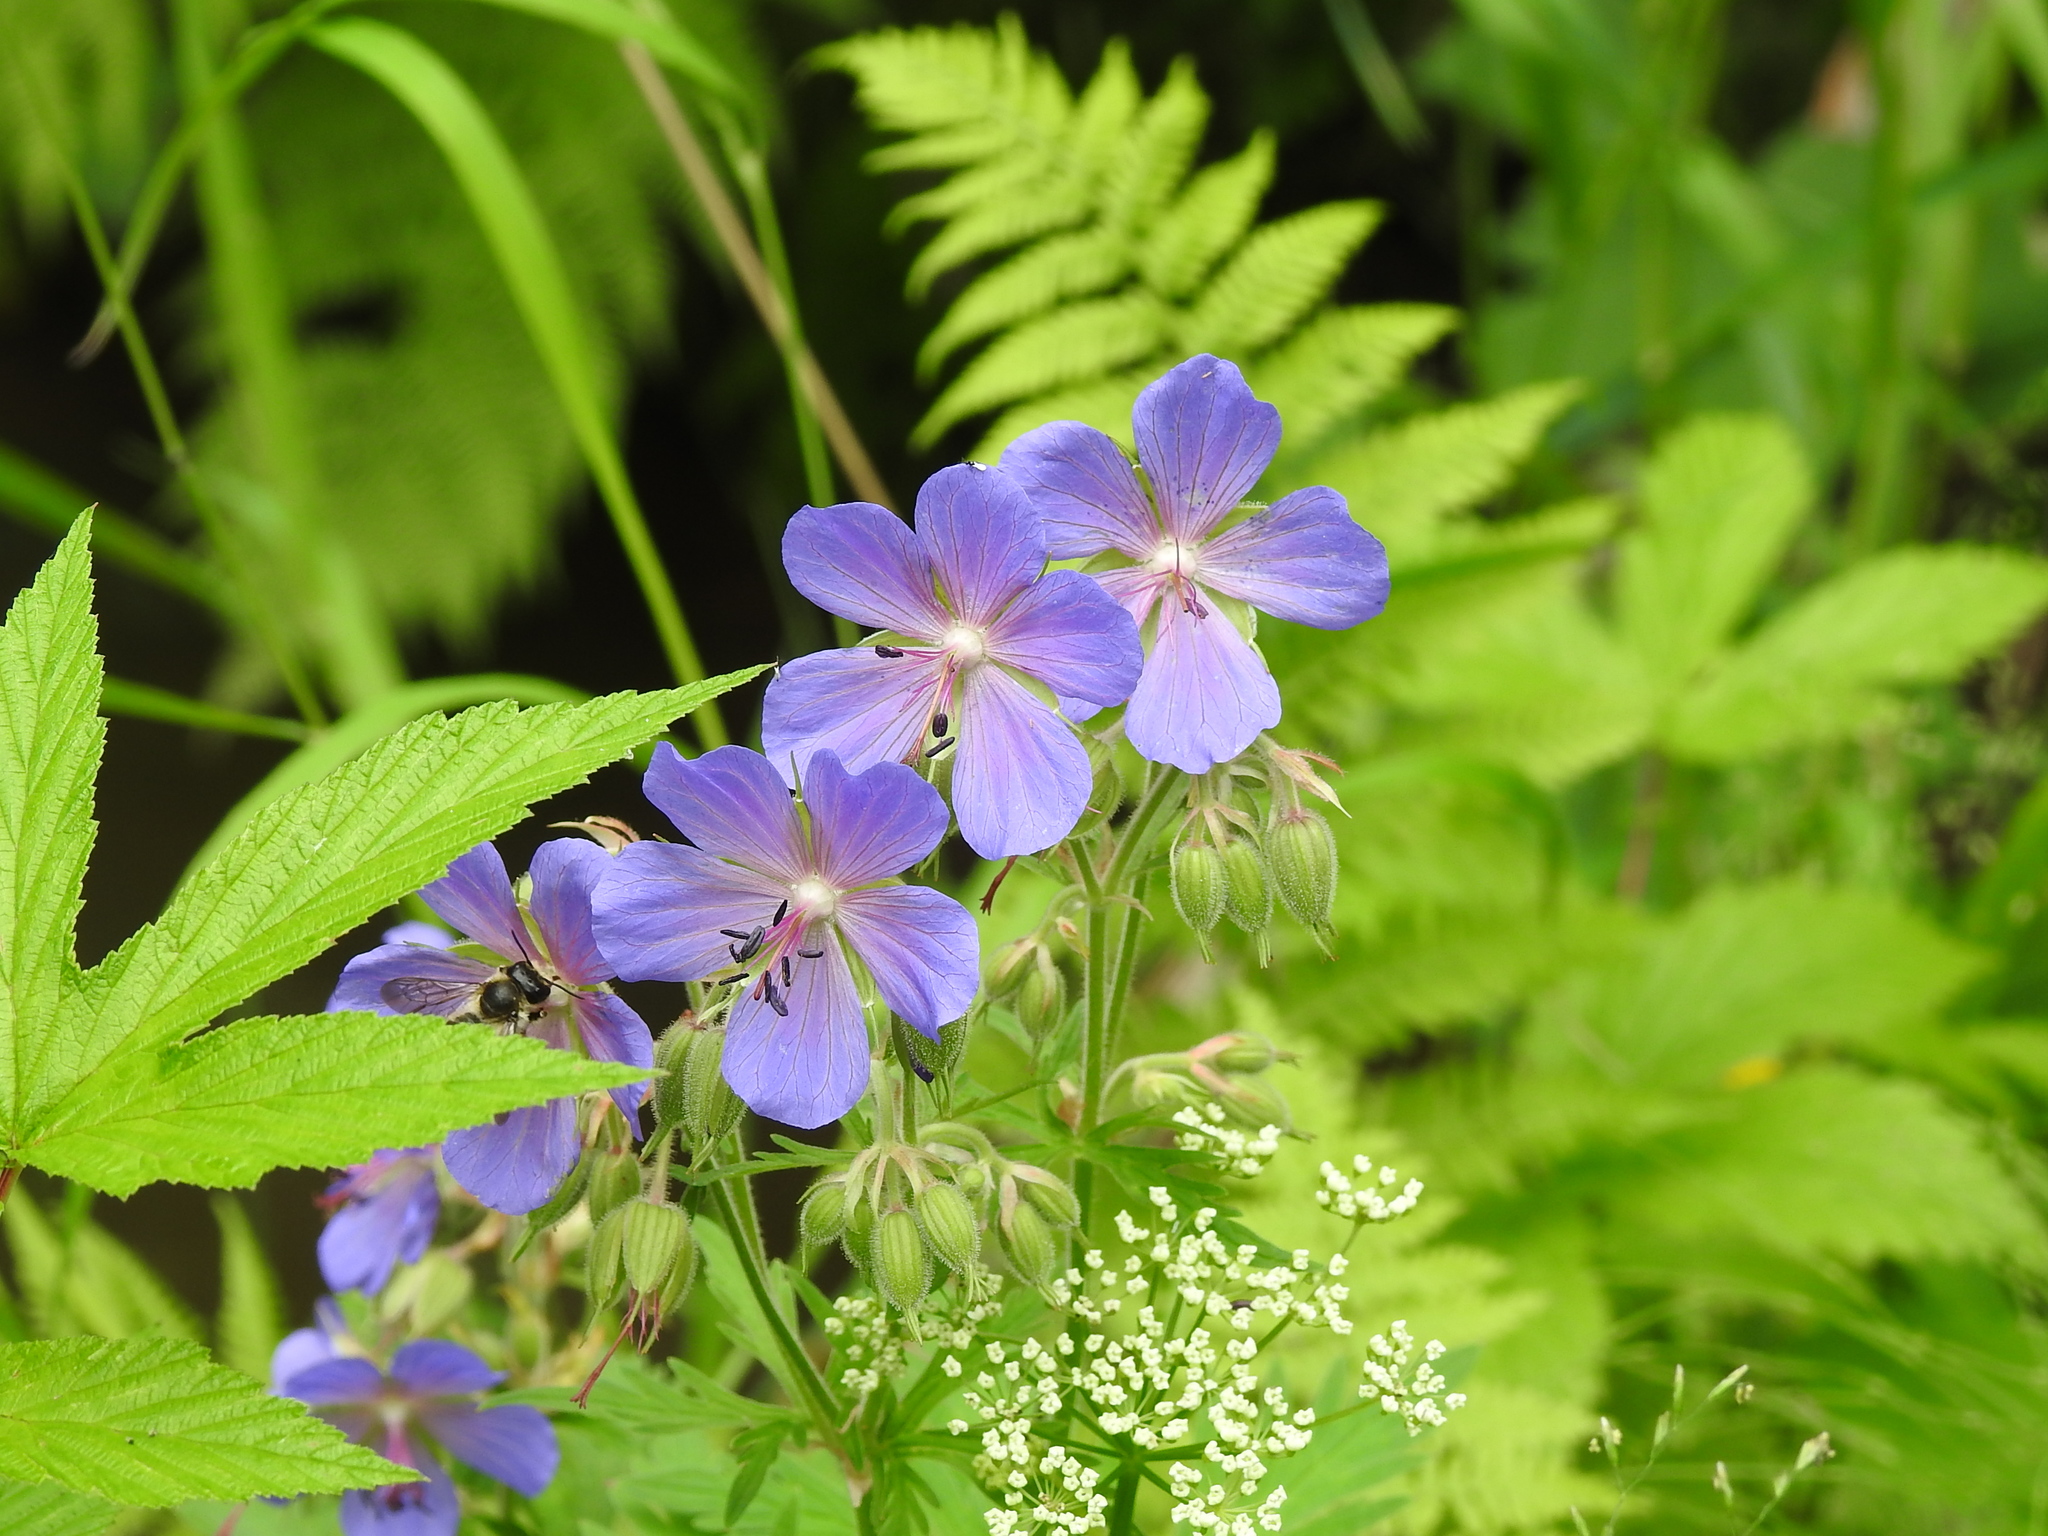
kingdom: Plantae
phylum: Tracheophyta
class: Magnoliopsida
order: Geraniales
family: Geraniaceae
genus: Geranium
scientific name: Geranium pratense
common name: Meadow crane's-bill
